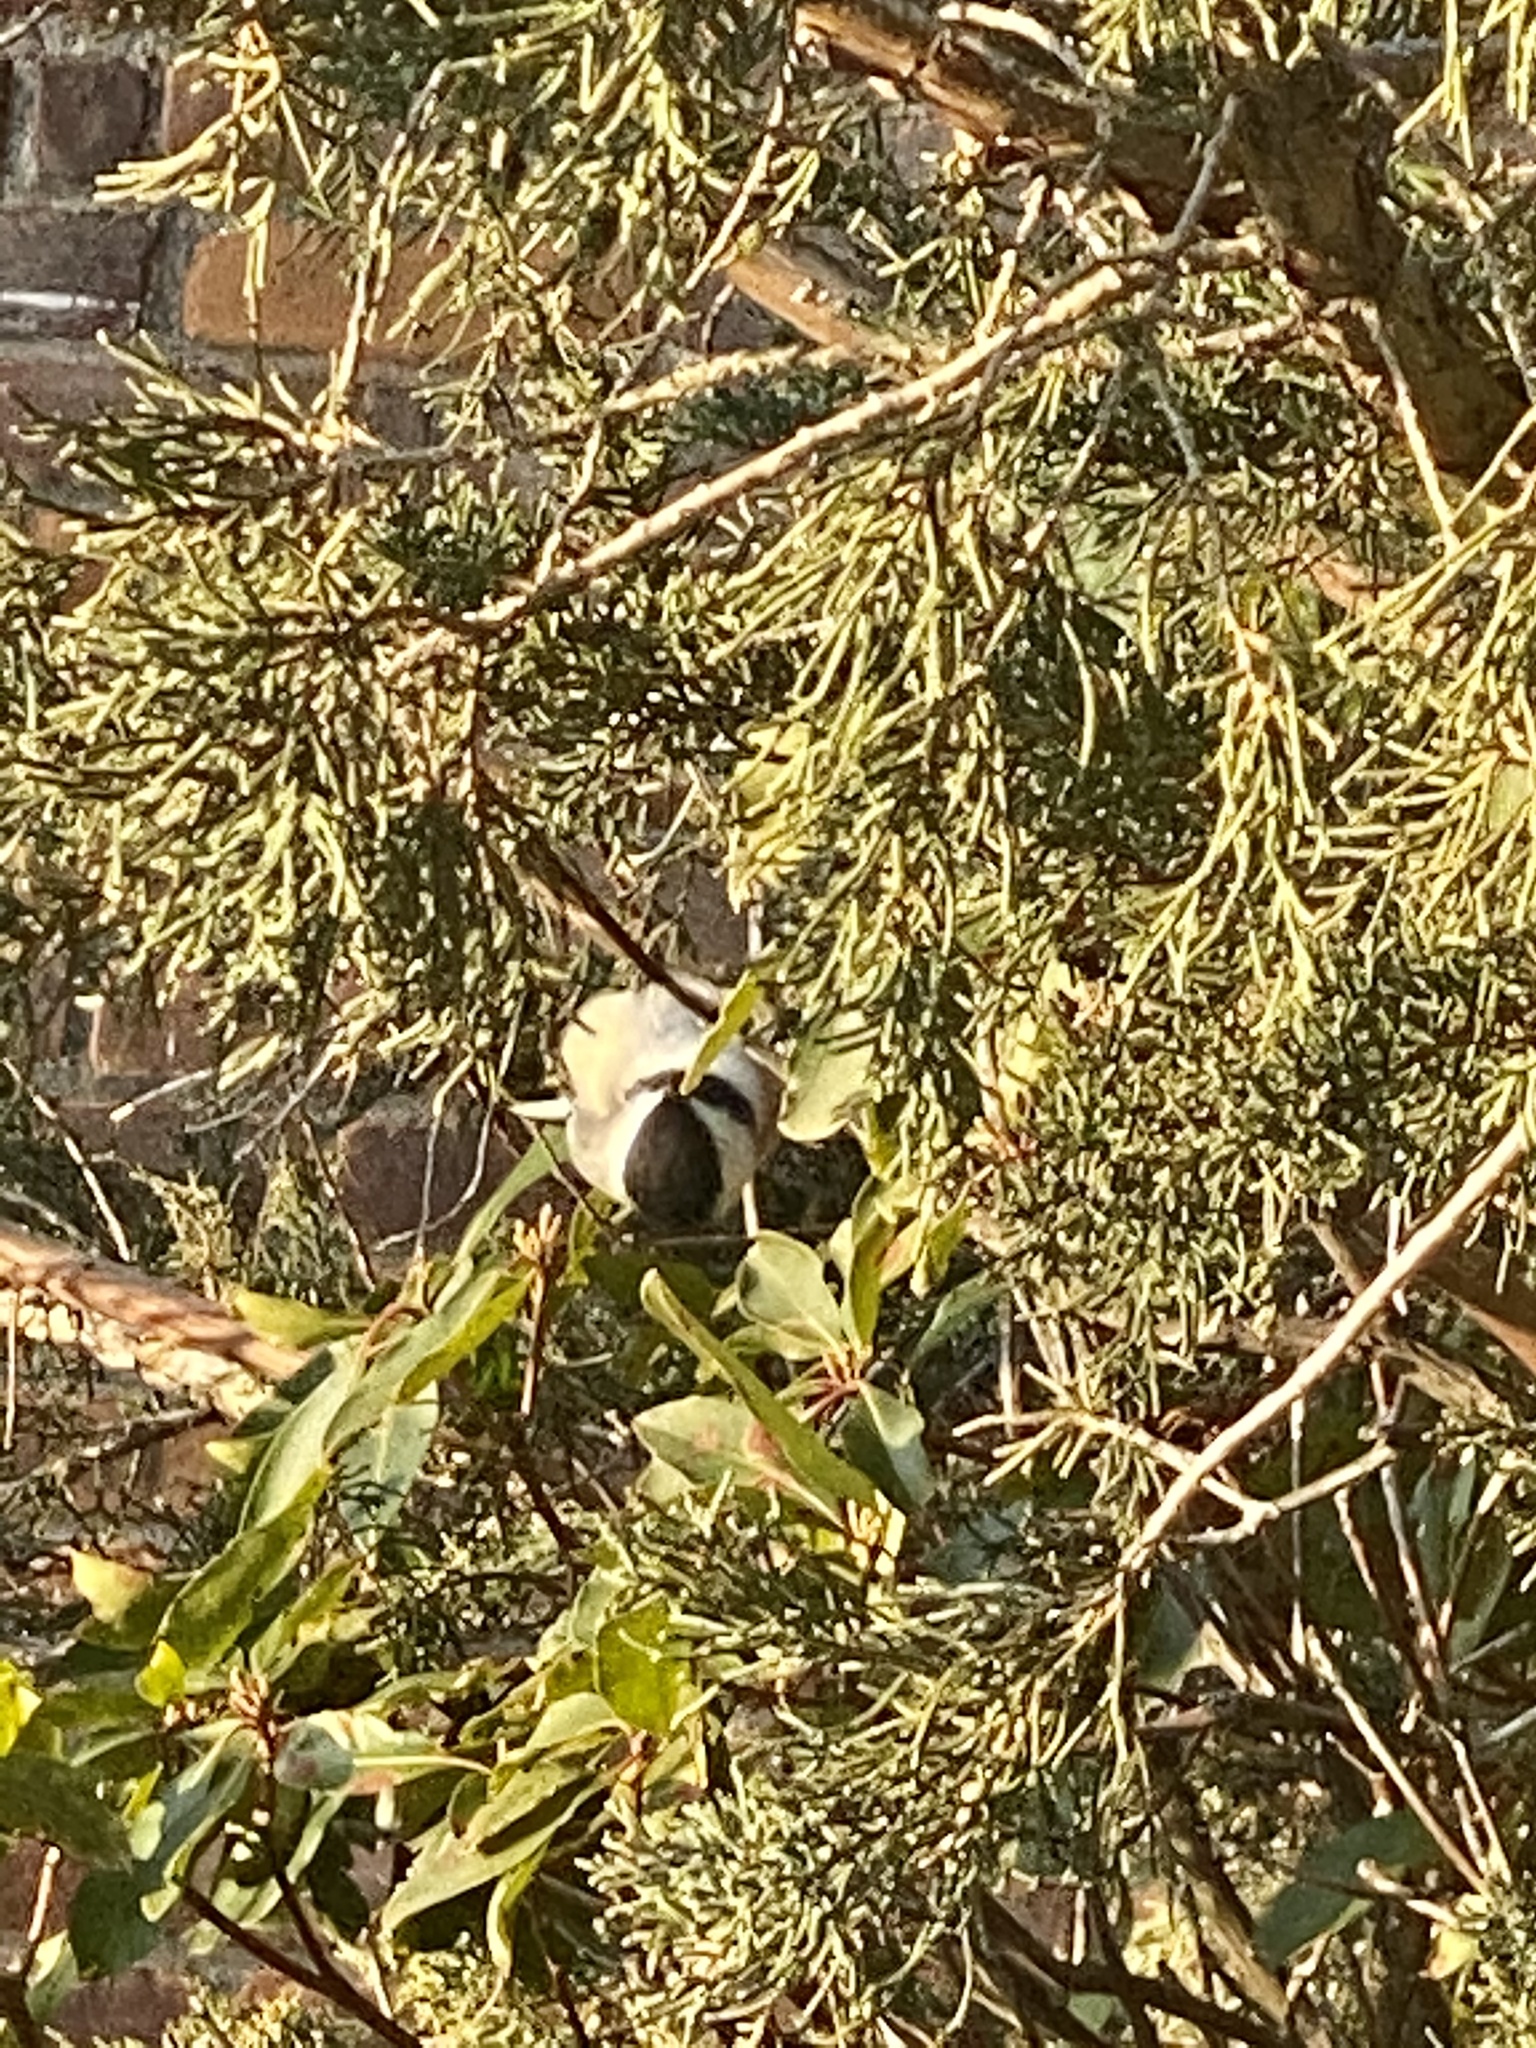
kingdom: Animalia
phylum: Chordata
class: Aves
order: Passeriformes
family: Paridae
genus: Poecile
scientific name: Poecile atricapillus
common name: Black-capped chickadee
